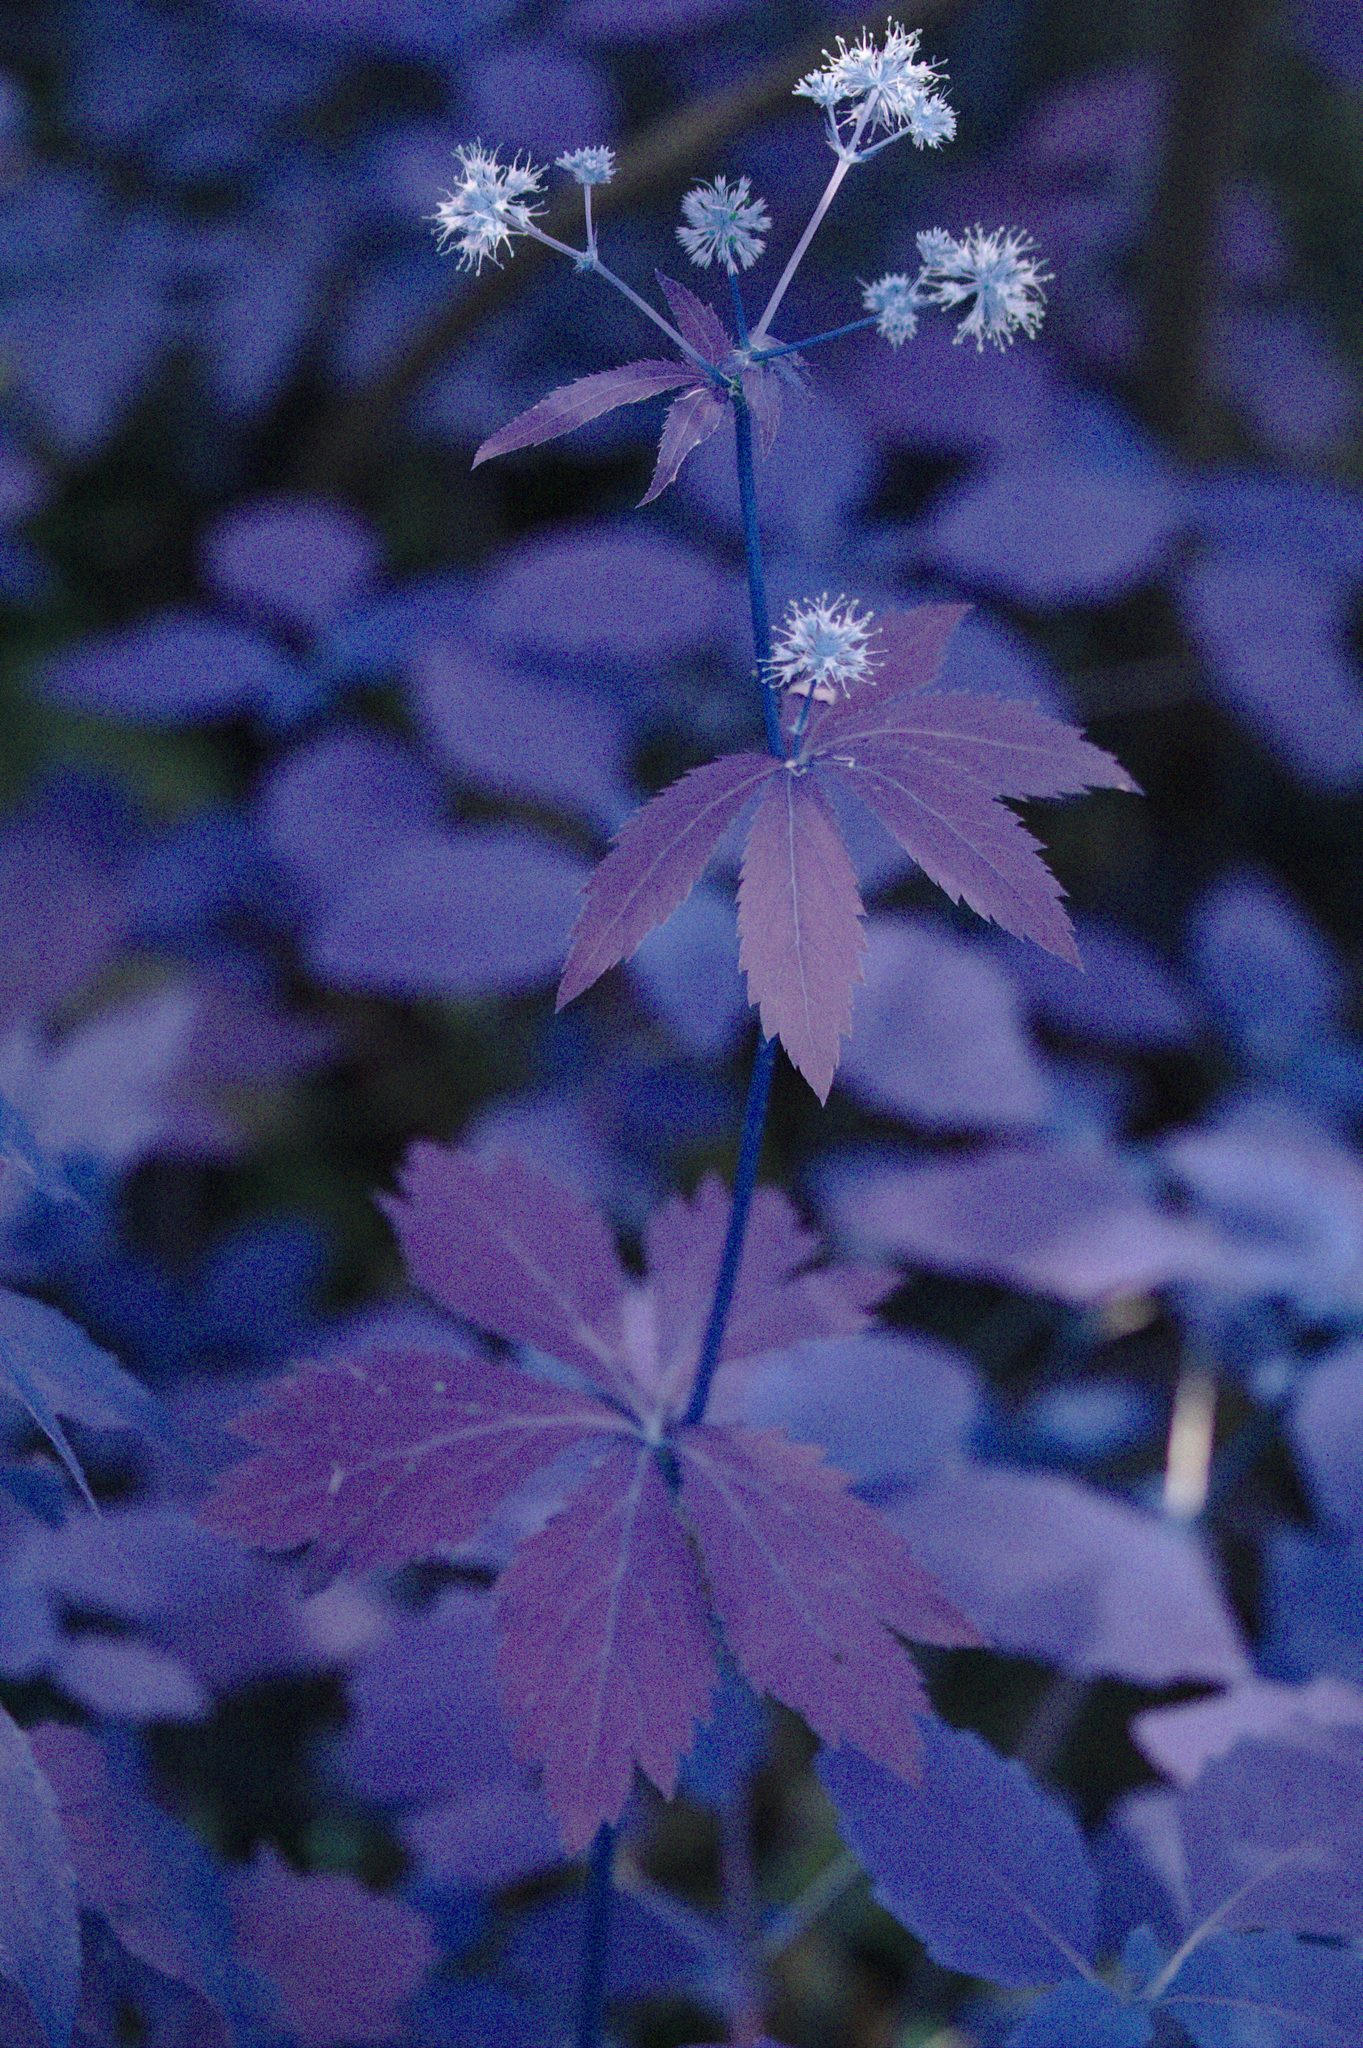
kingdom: Plantae
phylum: Tracheophyta
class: Magnoliopsida
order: Apiales
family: Apiaceae
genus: Sanicula
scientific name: Sanicula marilandica
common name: Black snakeroot
